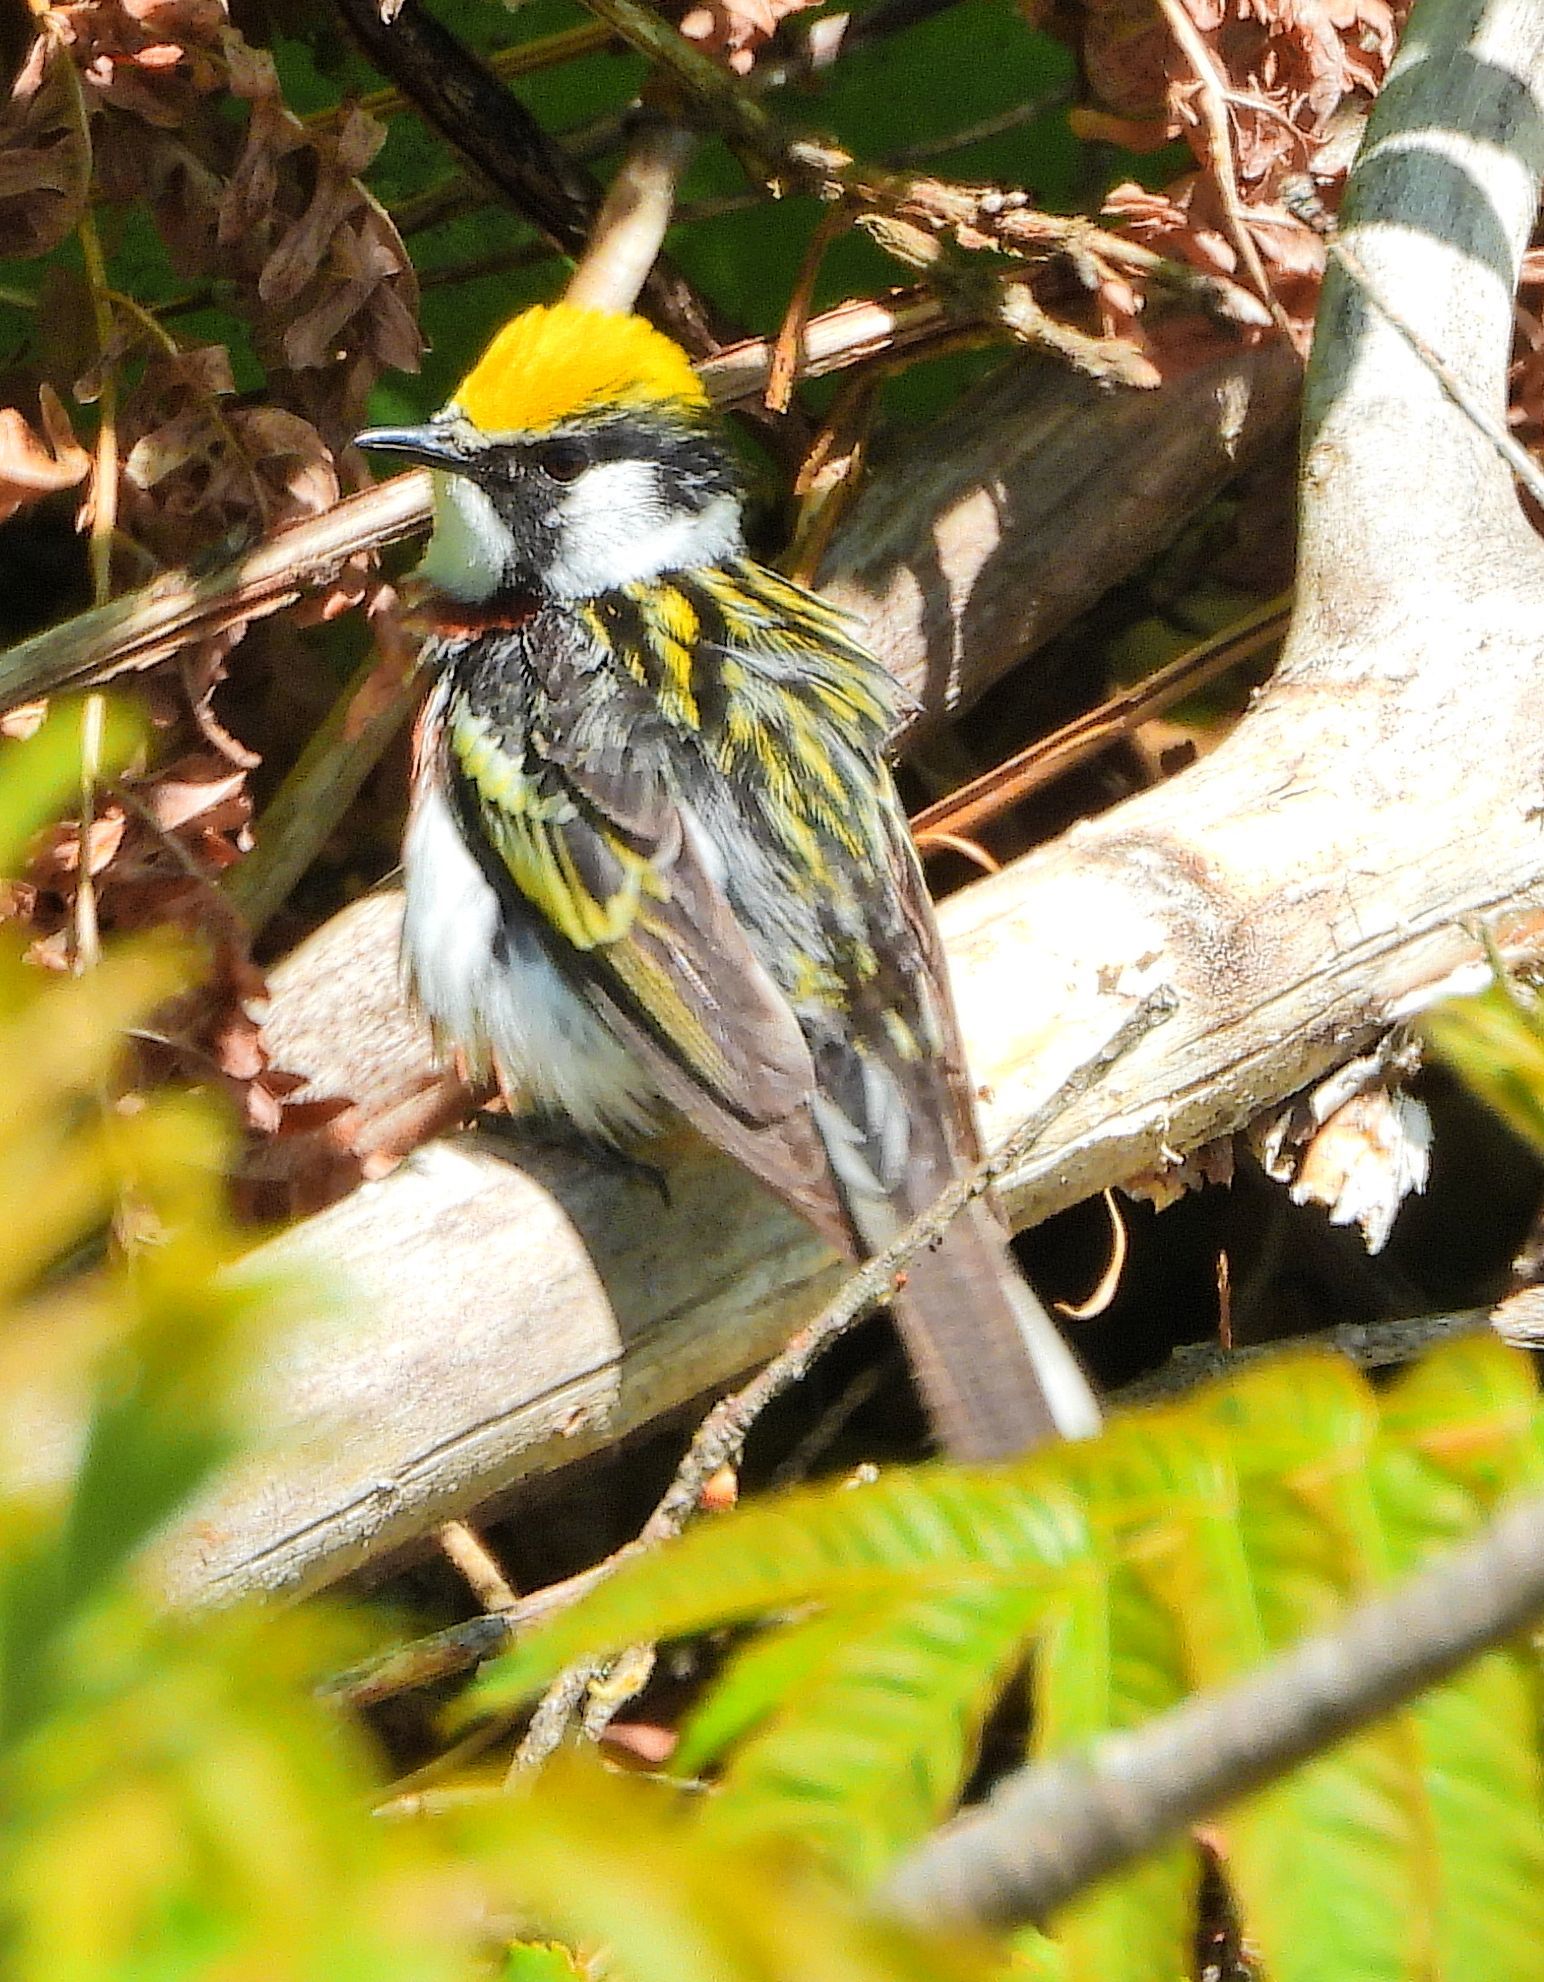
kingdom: Animalia
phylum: Chordata
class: Aves
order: Passeriformes
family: Parulidae
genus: Setophaga
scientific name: Setophaga pensylvanica
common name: Chestnut-sided warbler
